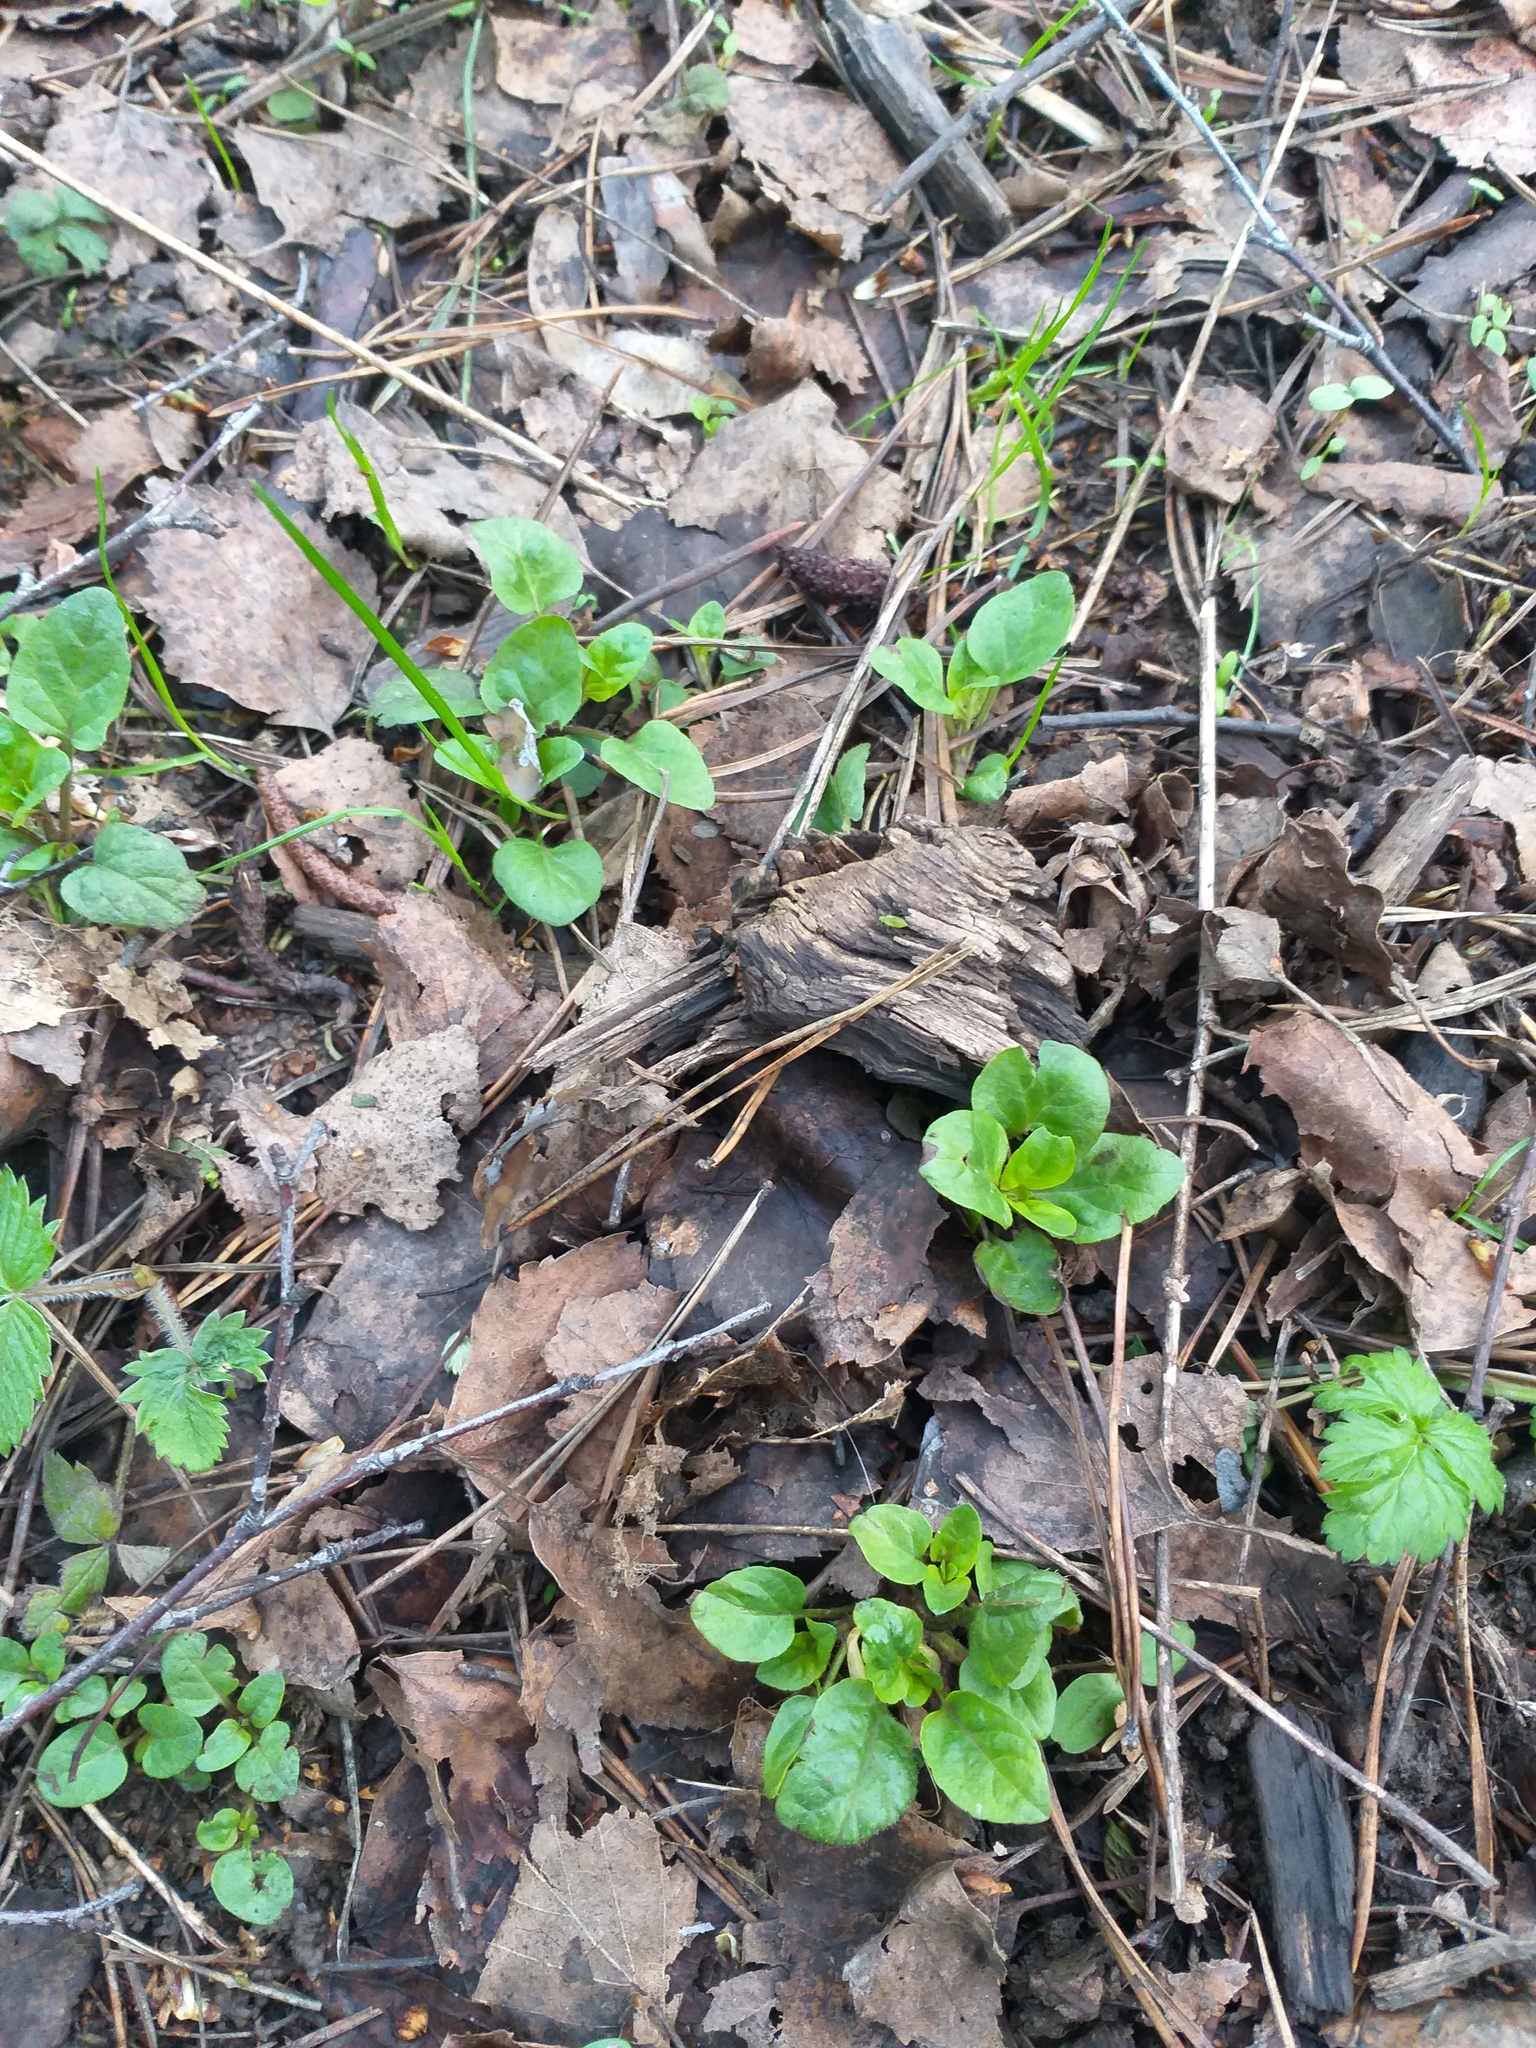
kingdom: Plantae
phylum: Tracheophyta
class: Magnoliopsida
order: Lamiales
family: Lamiaceae
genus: Prunella
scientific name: Prunella vulgaris
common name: Heal-all
